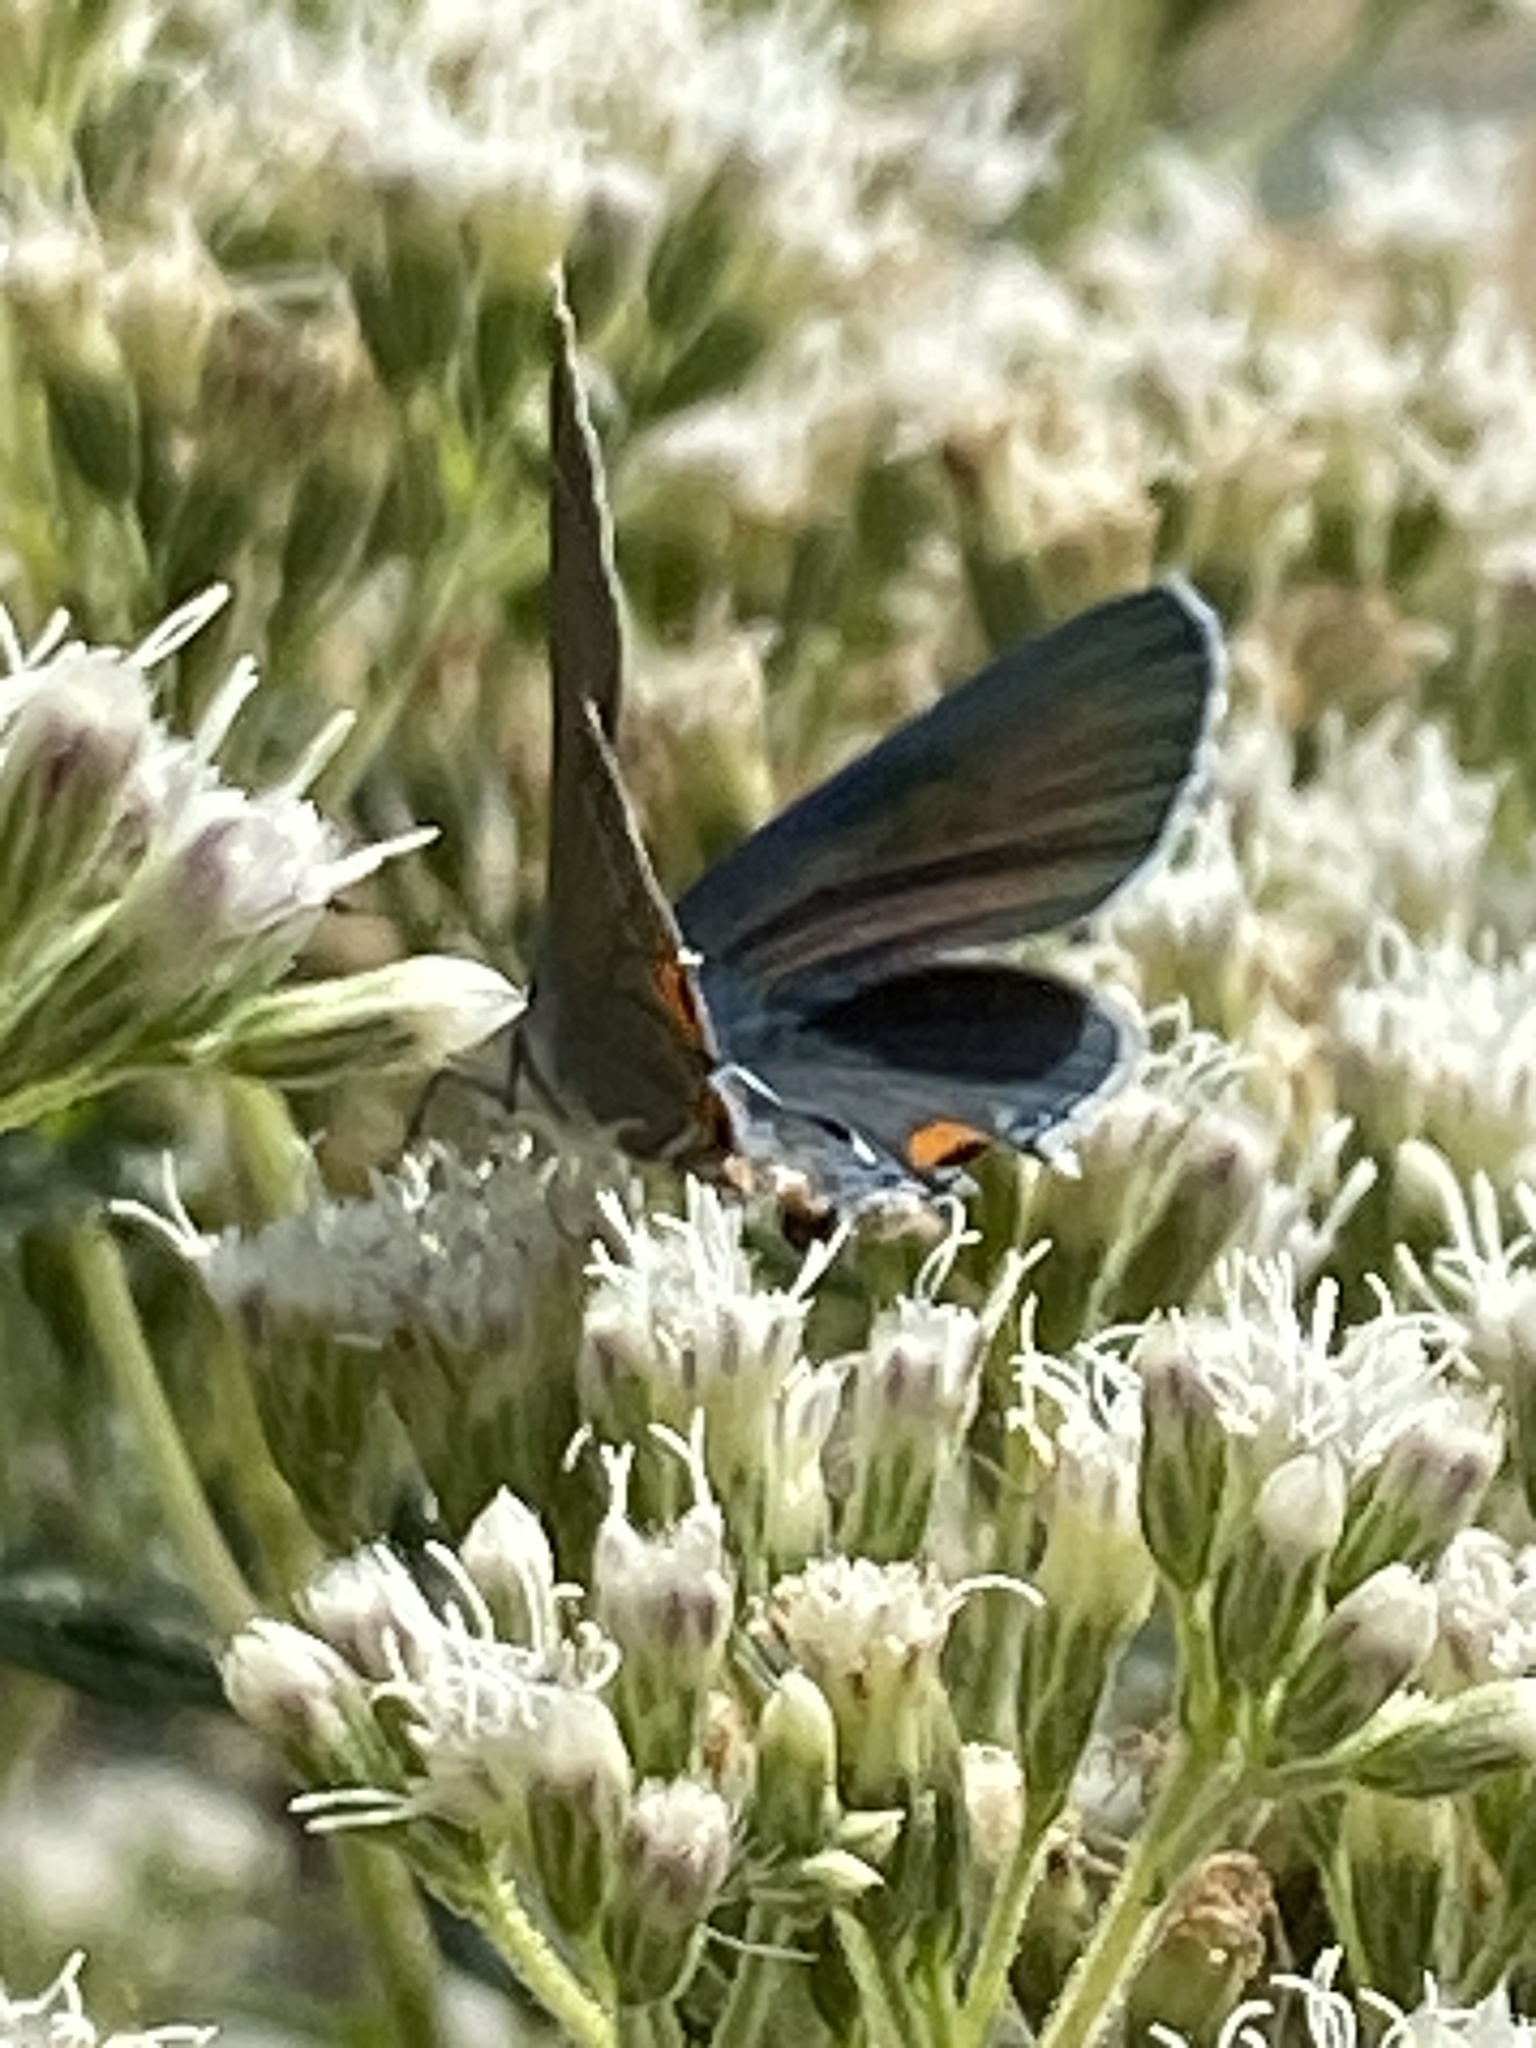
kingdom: Animalia
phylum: Arthropoda
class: Insecta
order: Lepidoptera
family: Lycaenidae
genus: Strymon
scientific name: Strymon melinus
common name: Gray hairstreak
